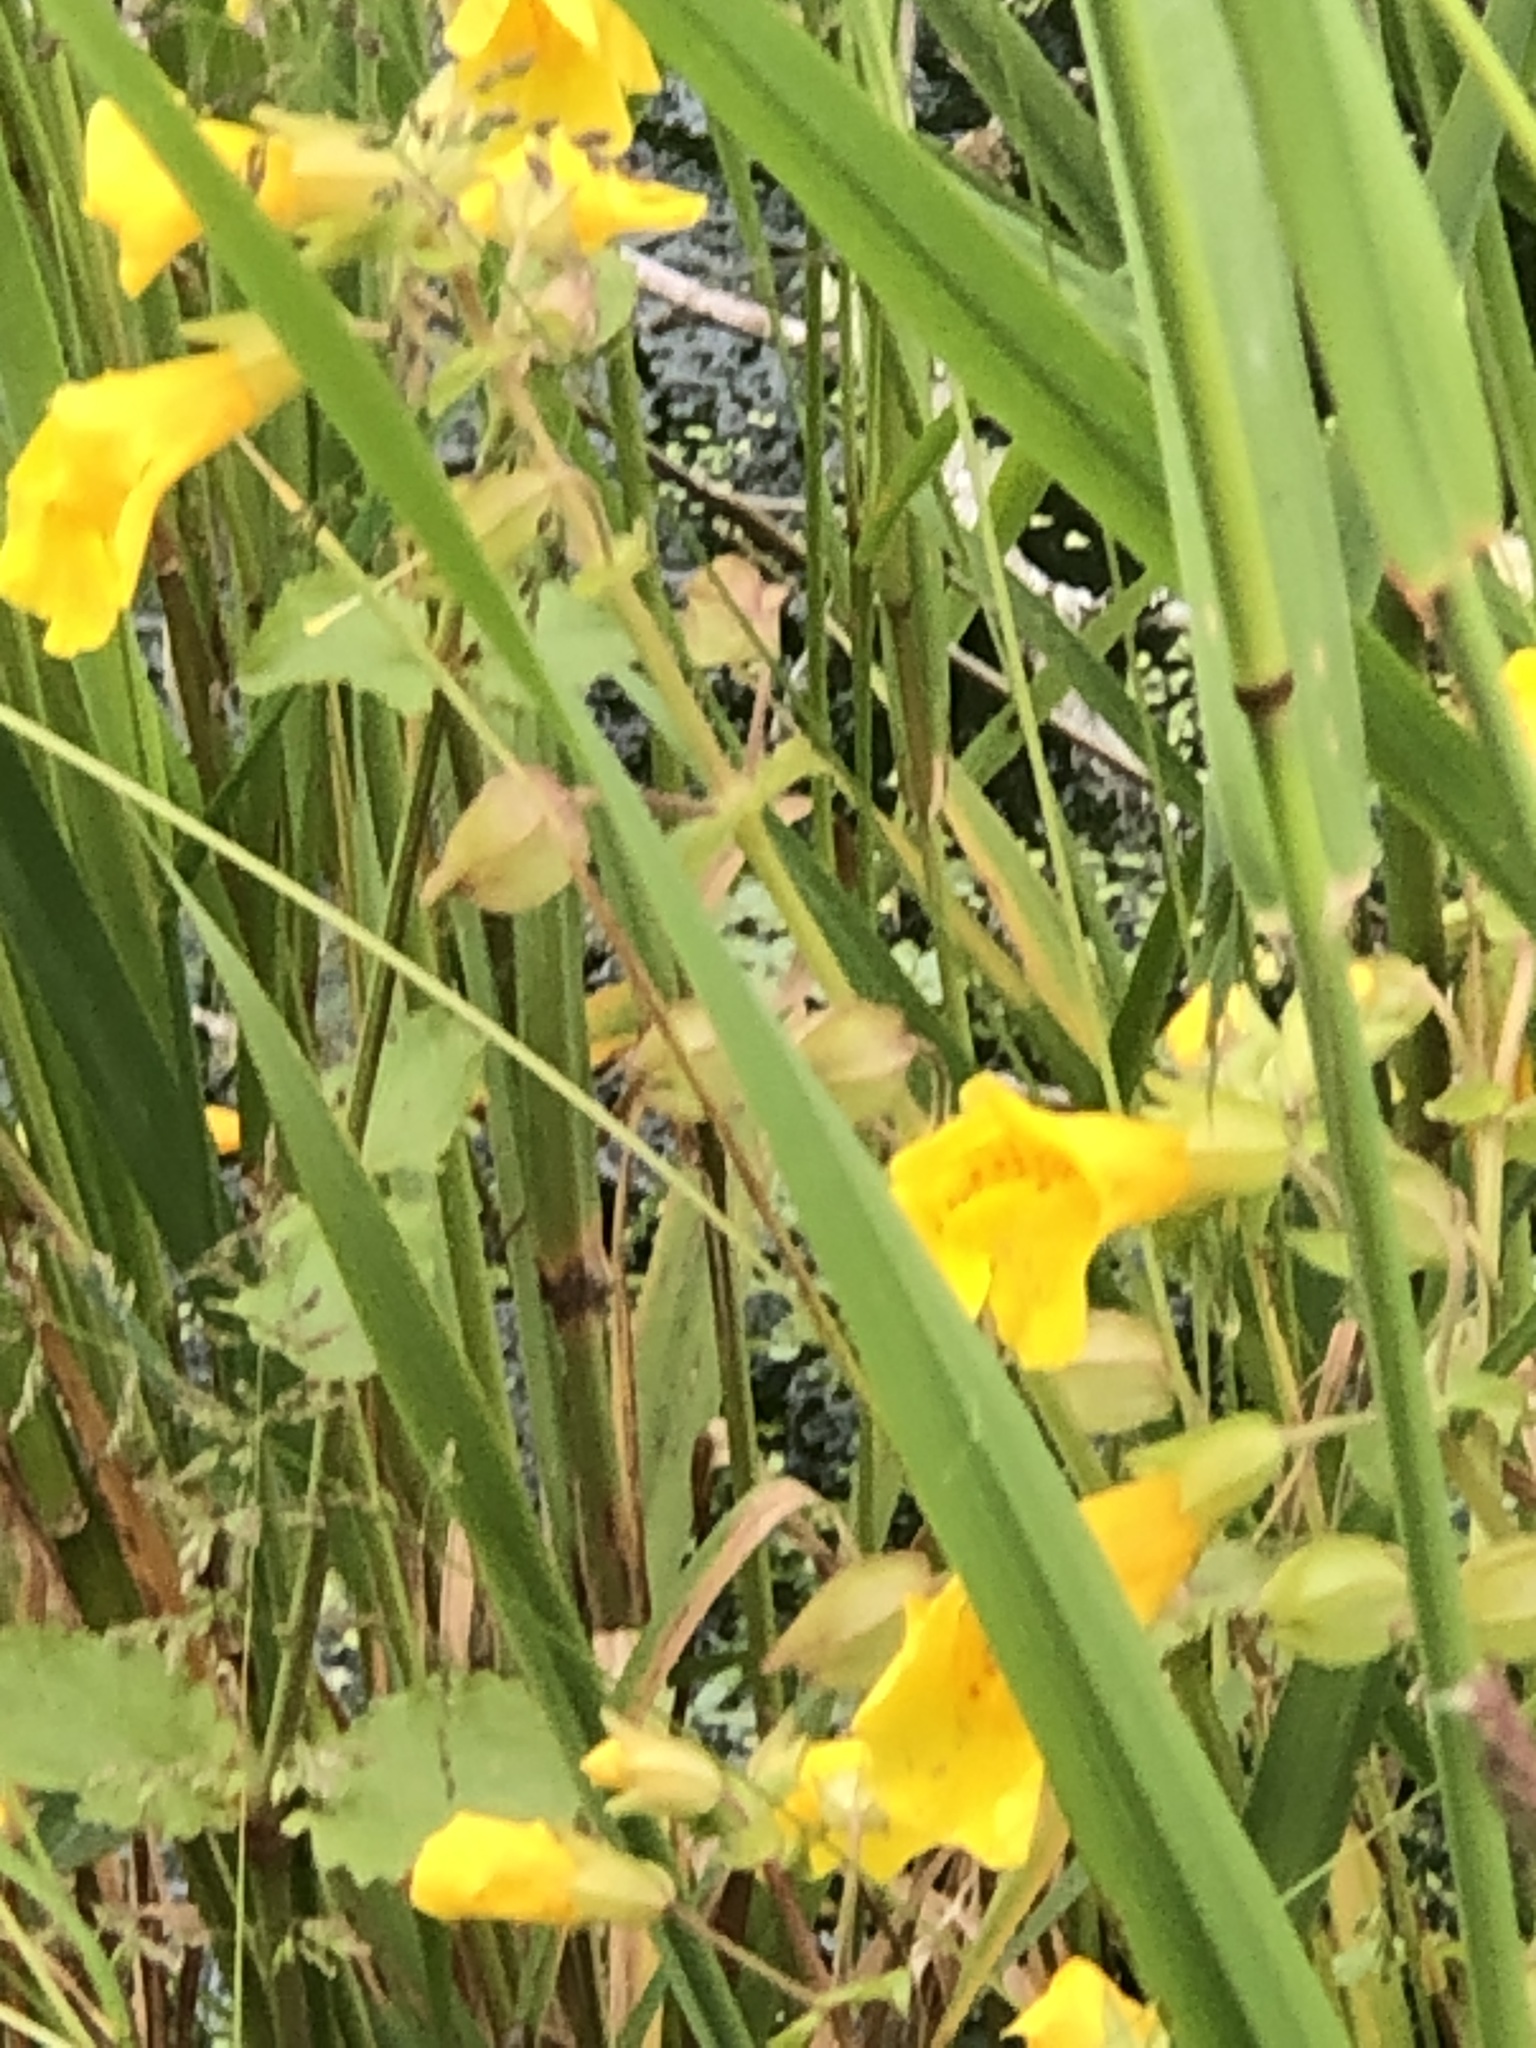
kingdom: Plantae
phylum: Tracheophyta
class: Magnoliopsida
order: Lamiales
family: Phrymaceae
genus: Erythranthe
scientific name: Erythranthe guttata
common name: Monkeyflower
